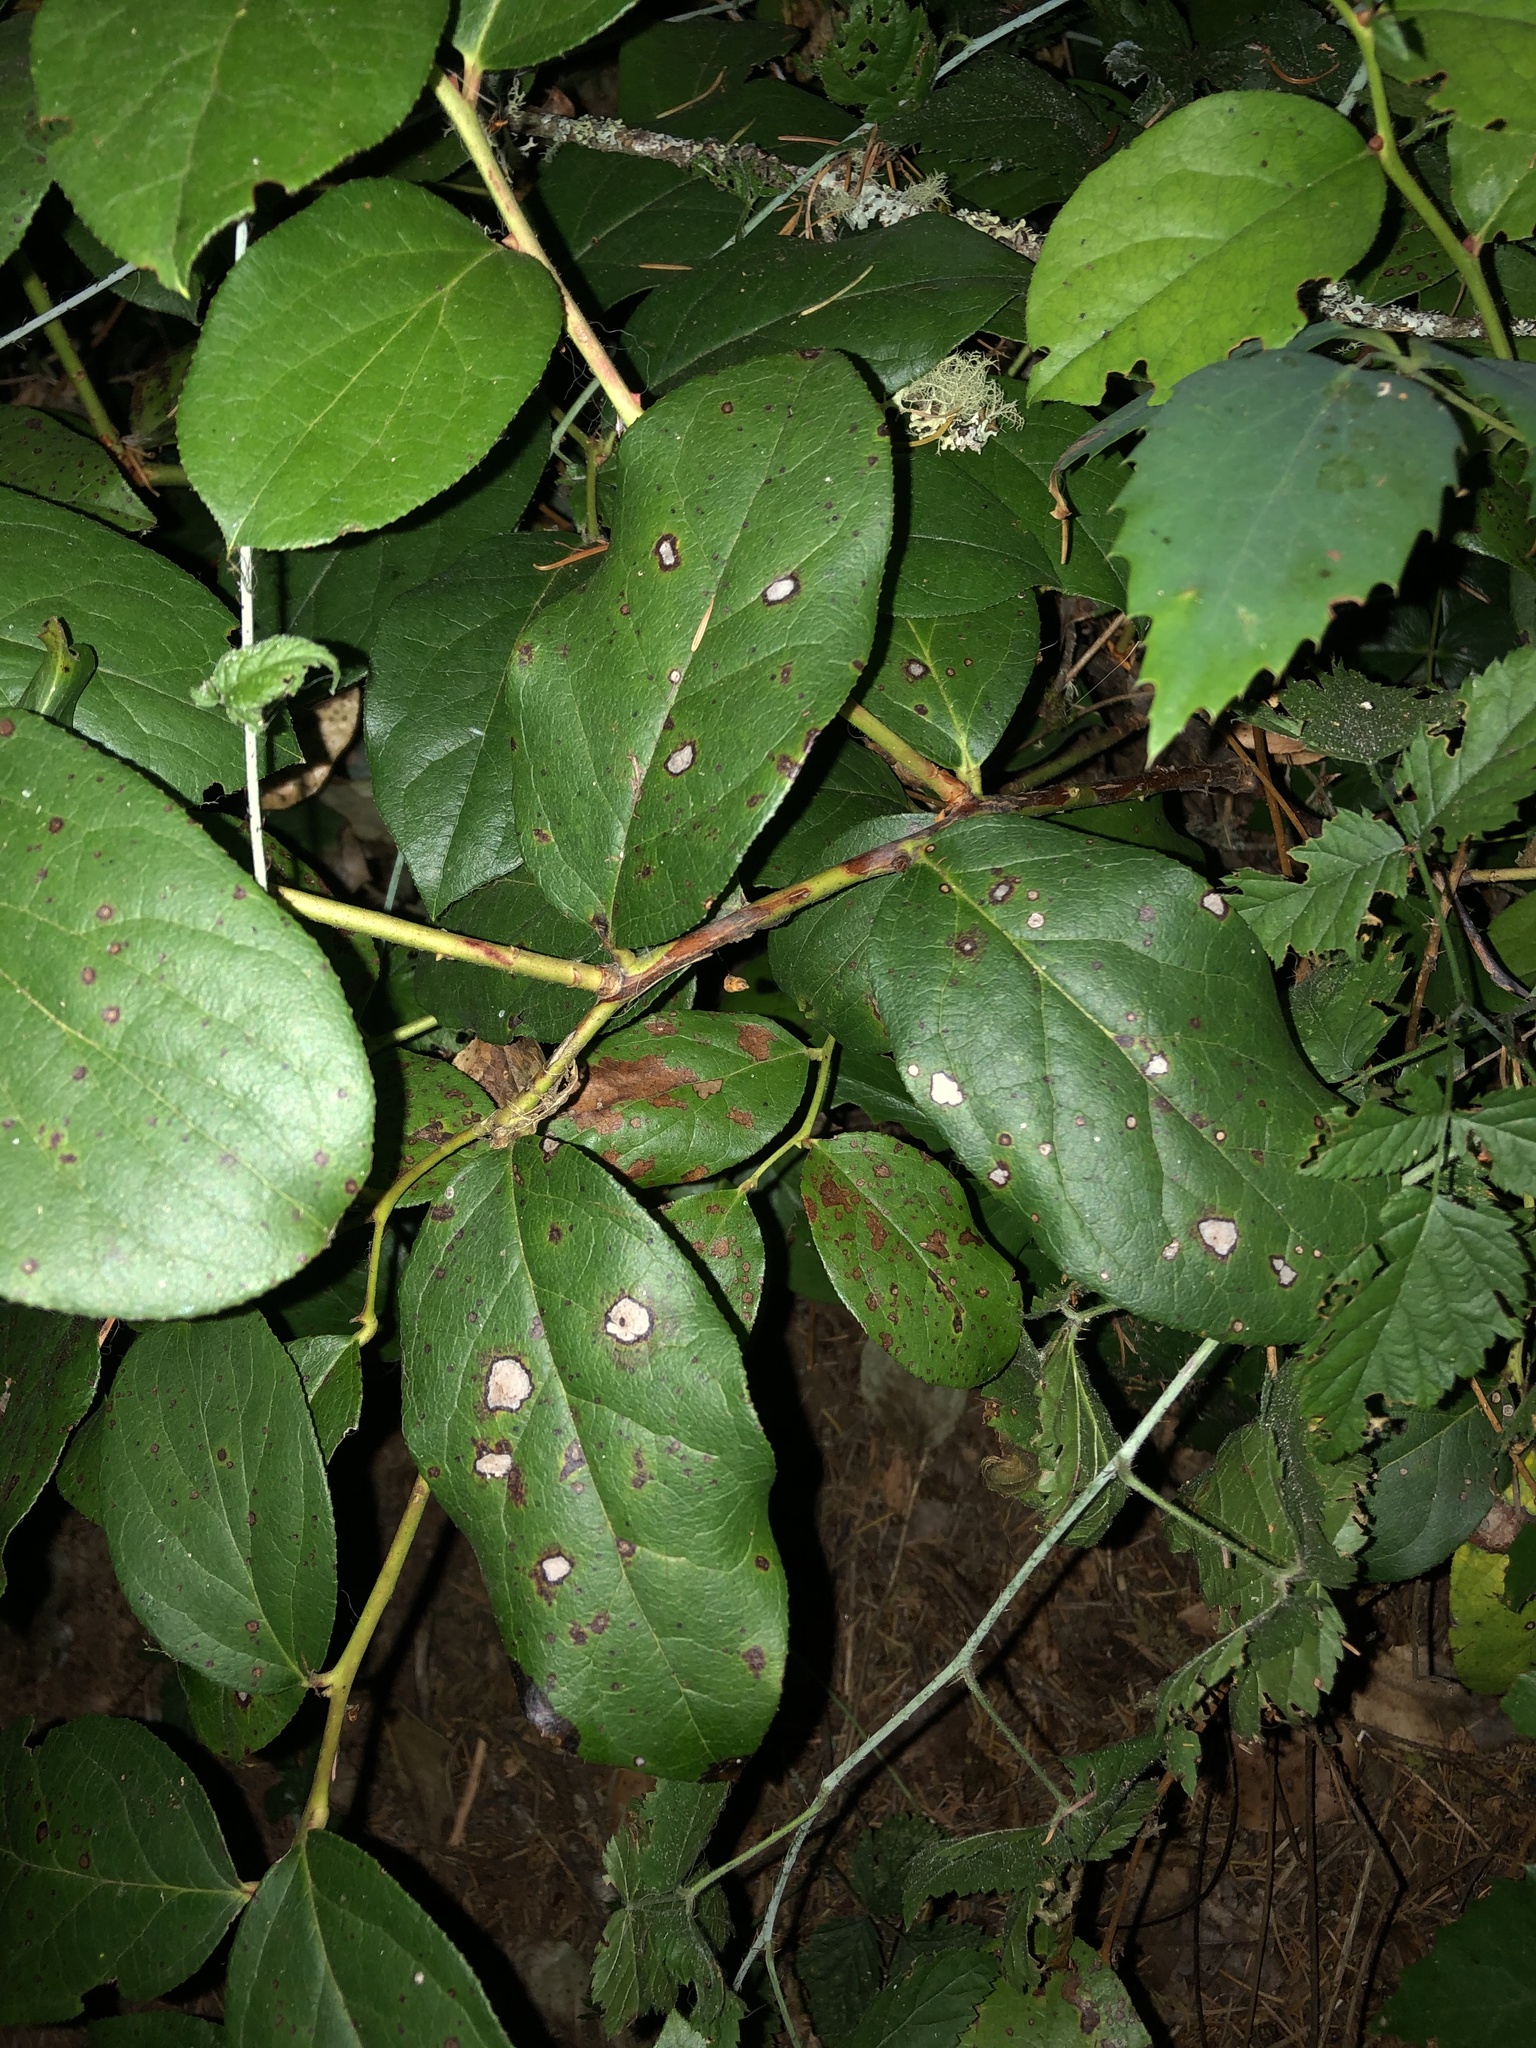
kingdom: Plantae
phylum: Tracheophyta
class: Magnoliopsida
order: Ericales
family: Ericaceae
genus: Gaultheria
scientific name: Gaultheria shallon
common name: Shallon
